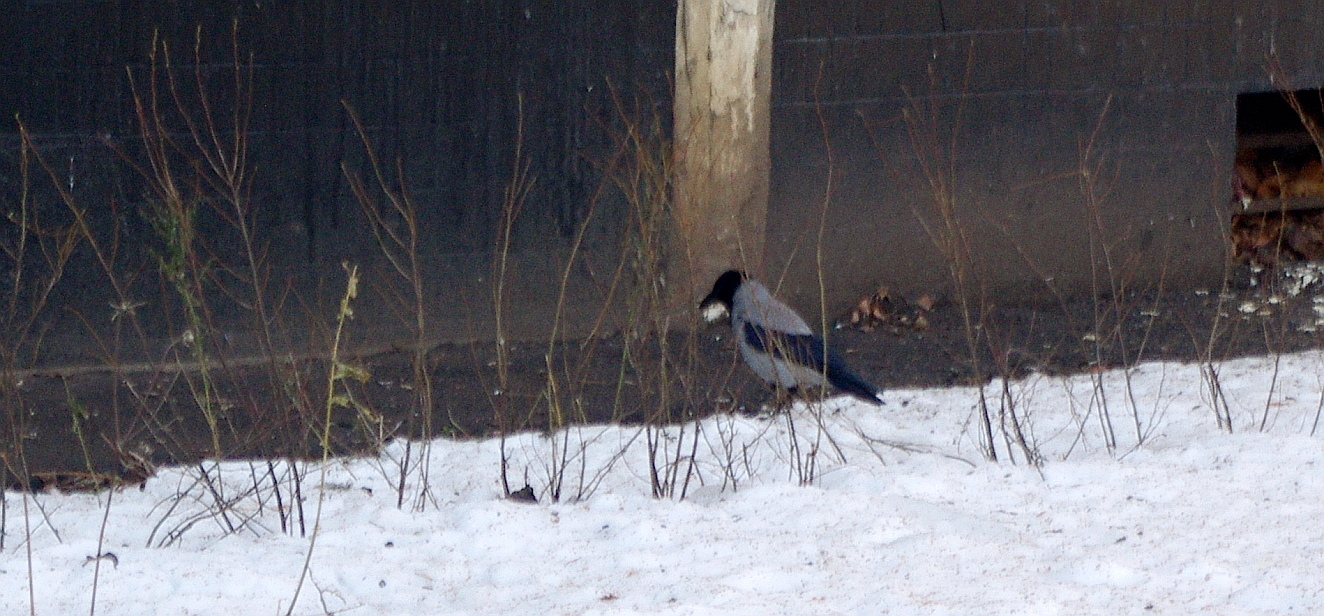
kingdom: Animalia
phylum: Chordata
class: Aves
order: Passeriformes
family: Corvidae
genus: Corvus
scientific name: Corvus cornix
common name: Hooded crow
